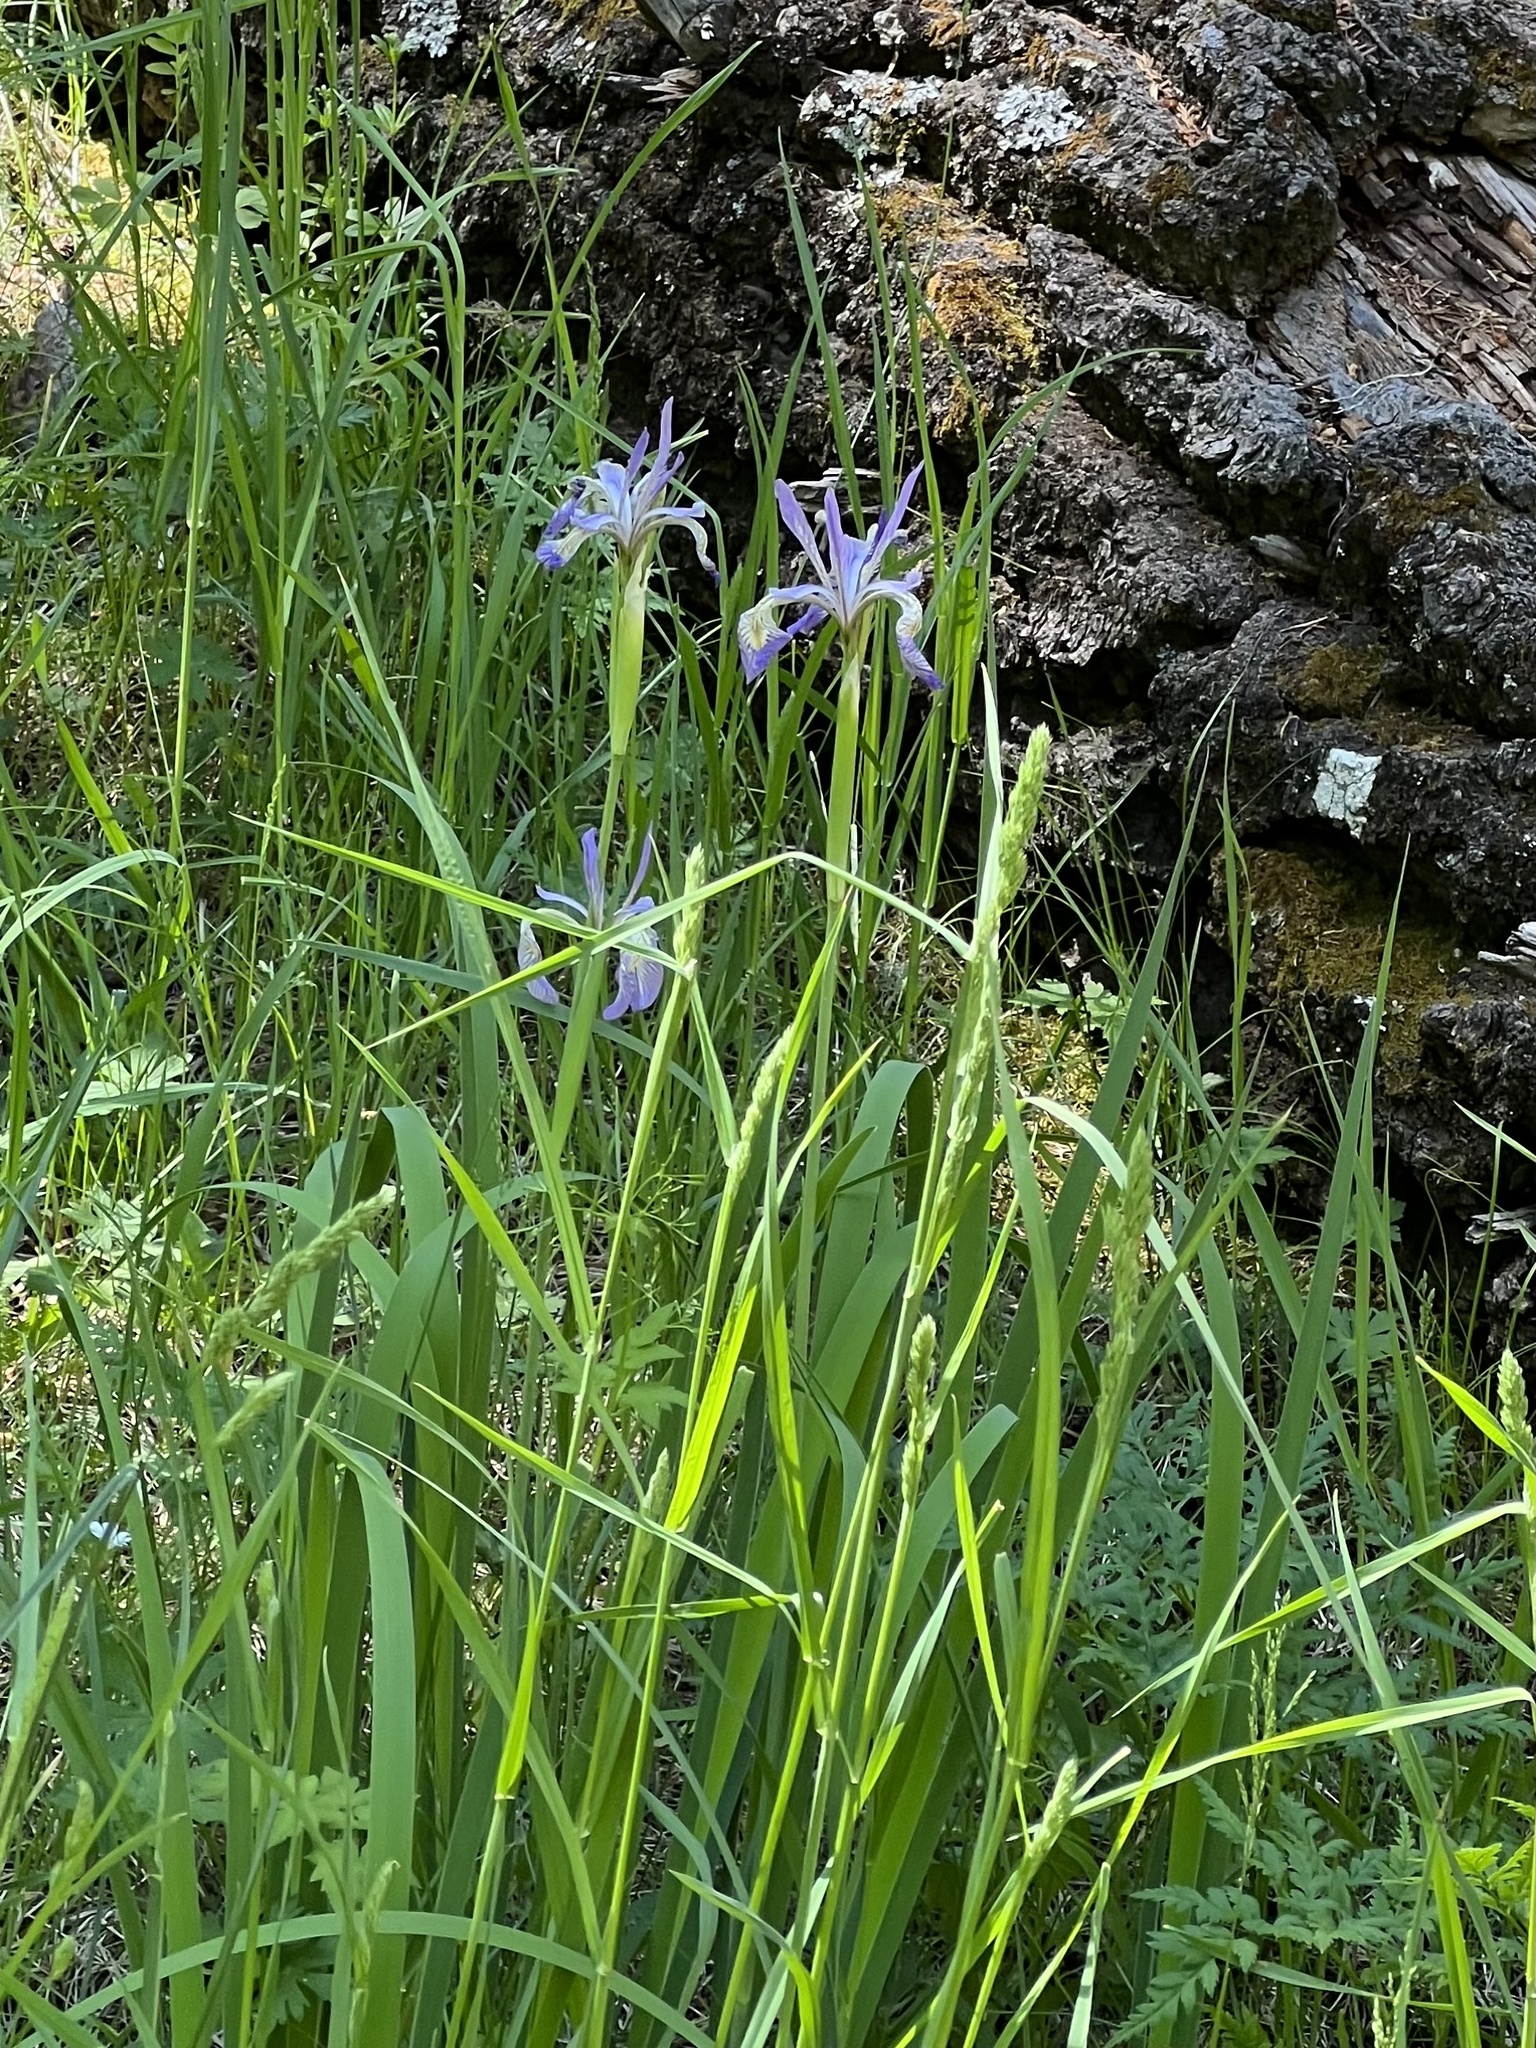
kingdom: Plantae
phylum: Tracheophyta
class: Liliopsida
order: Asparagales
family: Iridaceae
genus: Iris
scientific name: Iris missouriensis
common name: Rocky mountain iris
